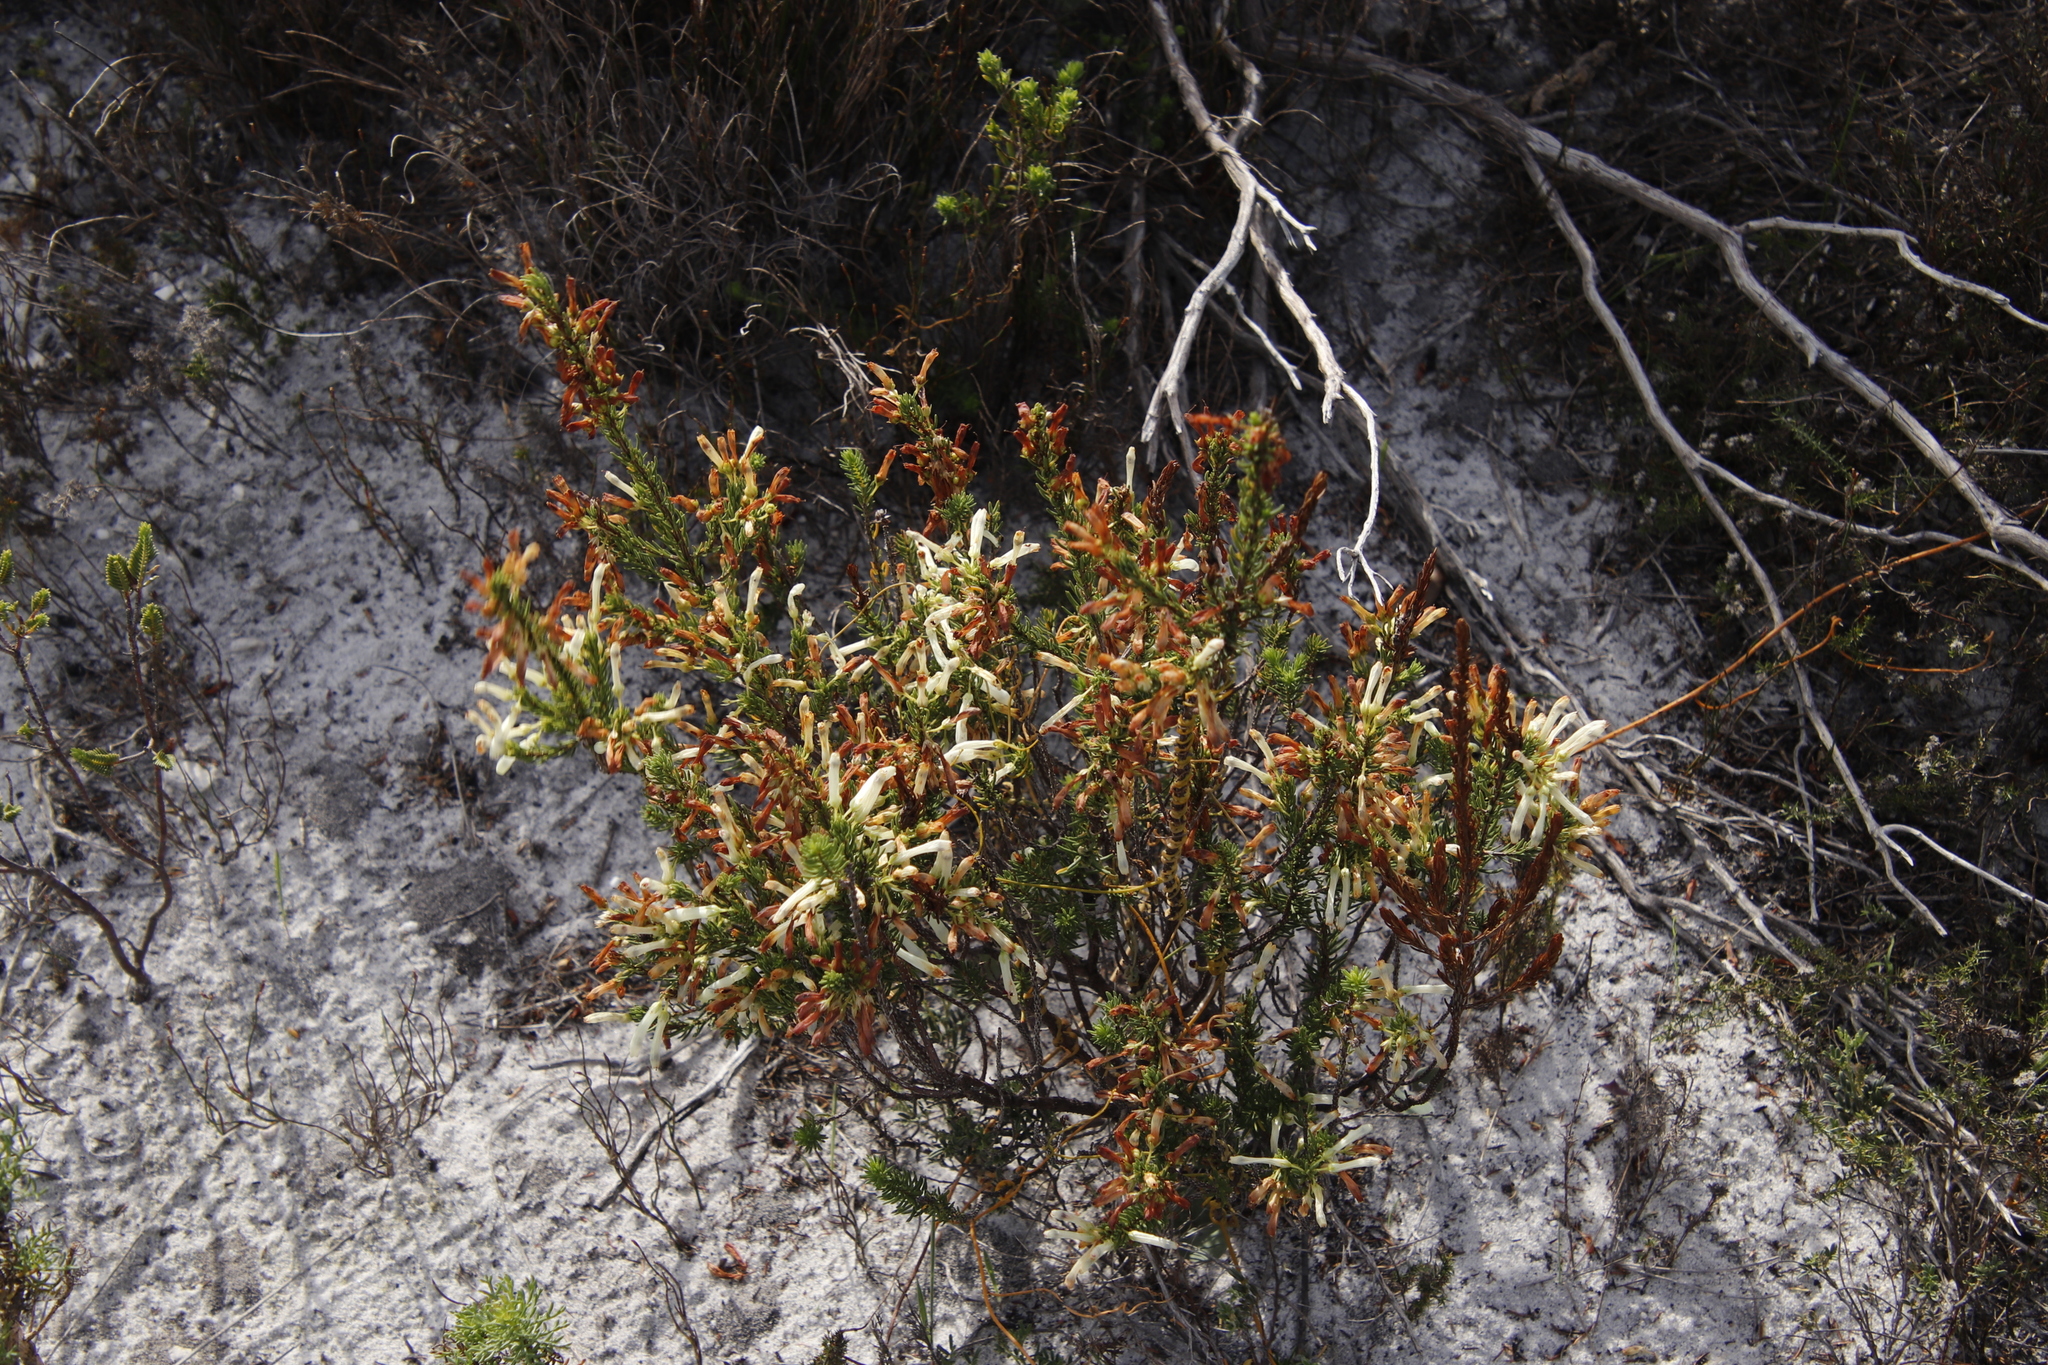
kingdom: Plantae
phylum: Tracheophyta
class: Magnoliopsida
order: Ericales
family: Ericaceae
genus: Erica
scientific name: Erica mammosa
